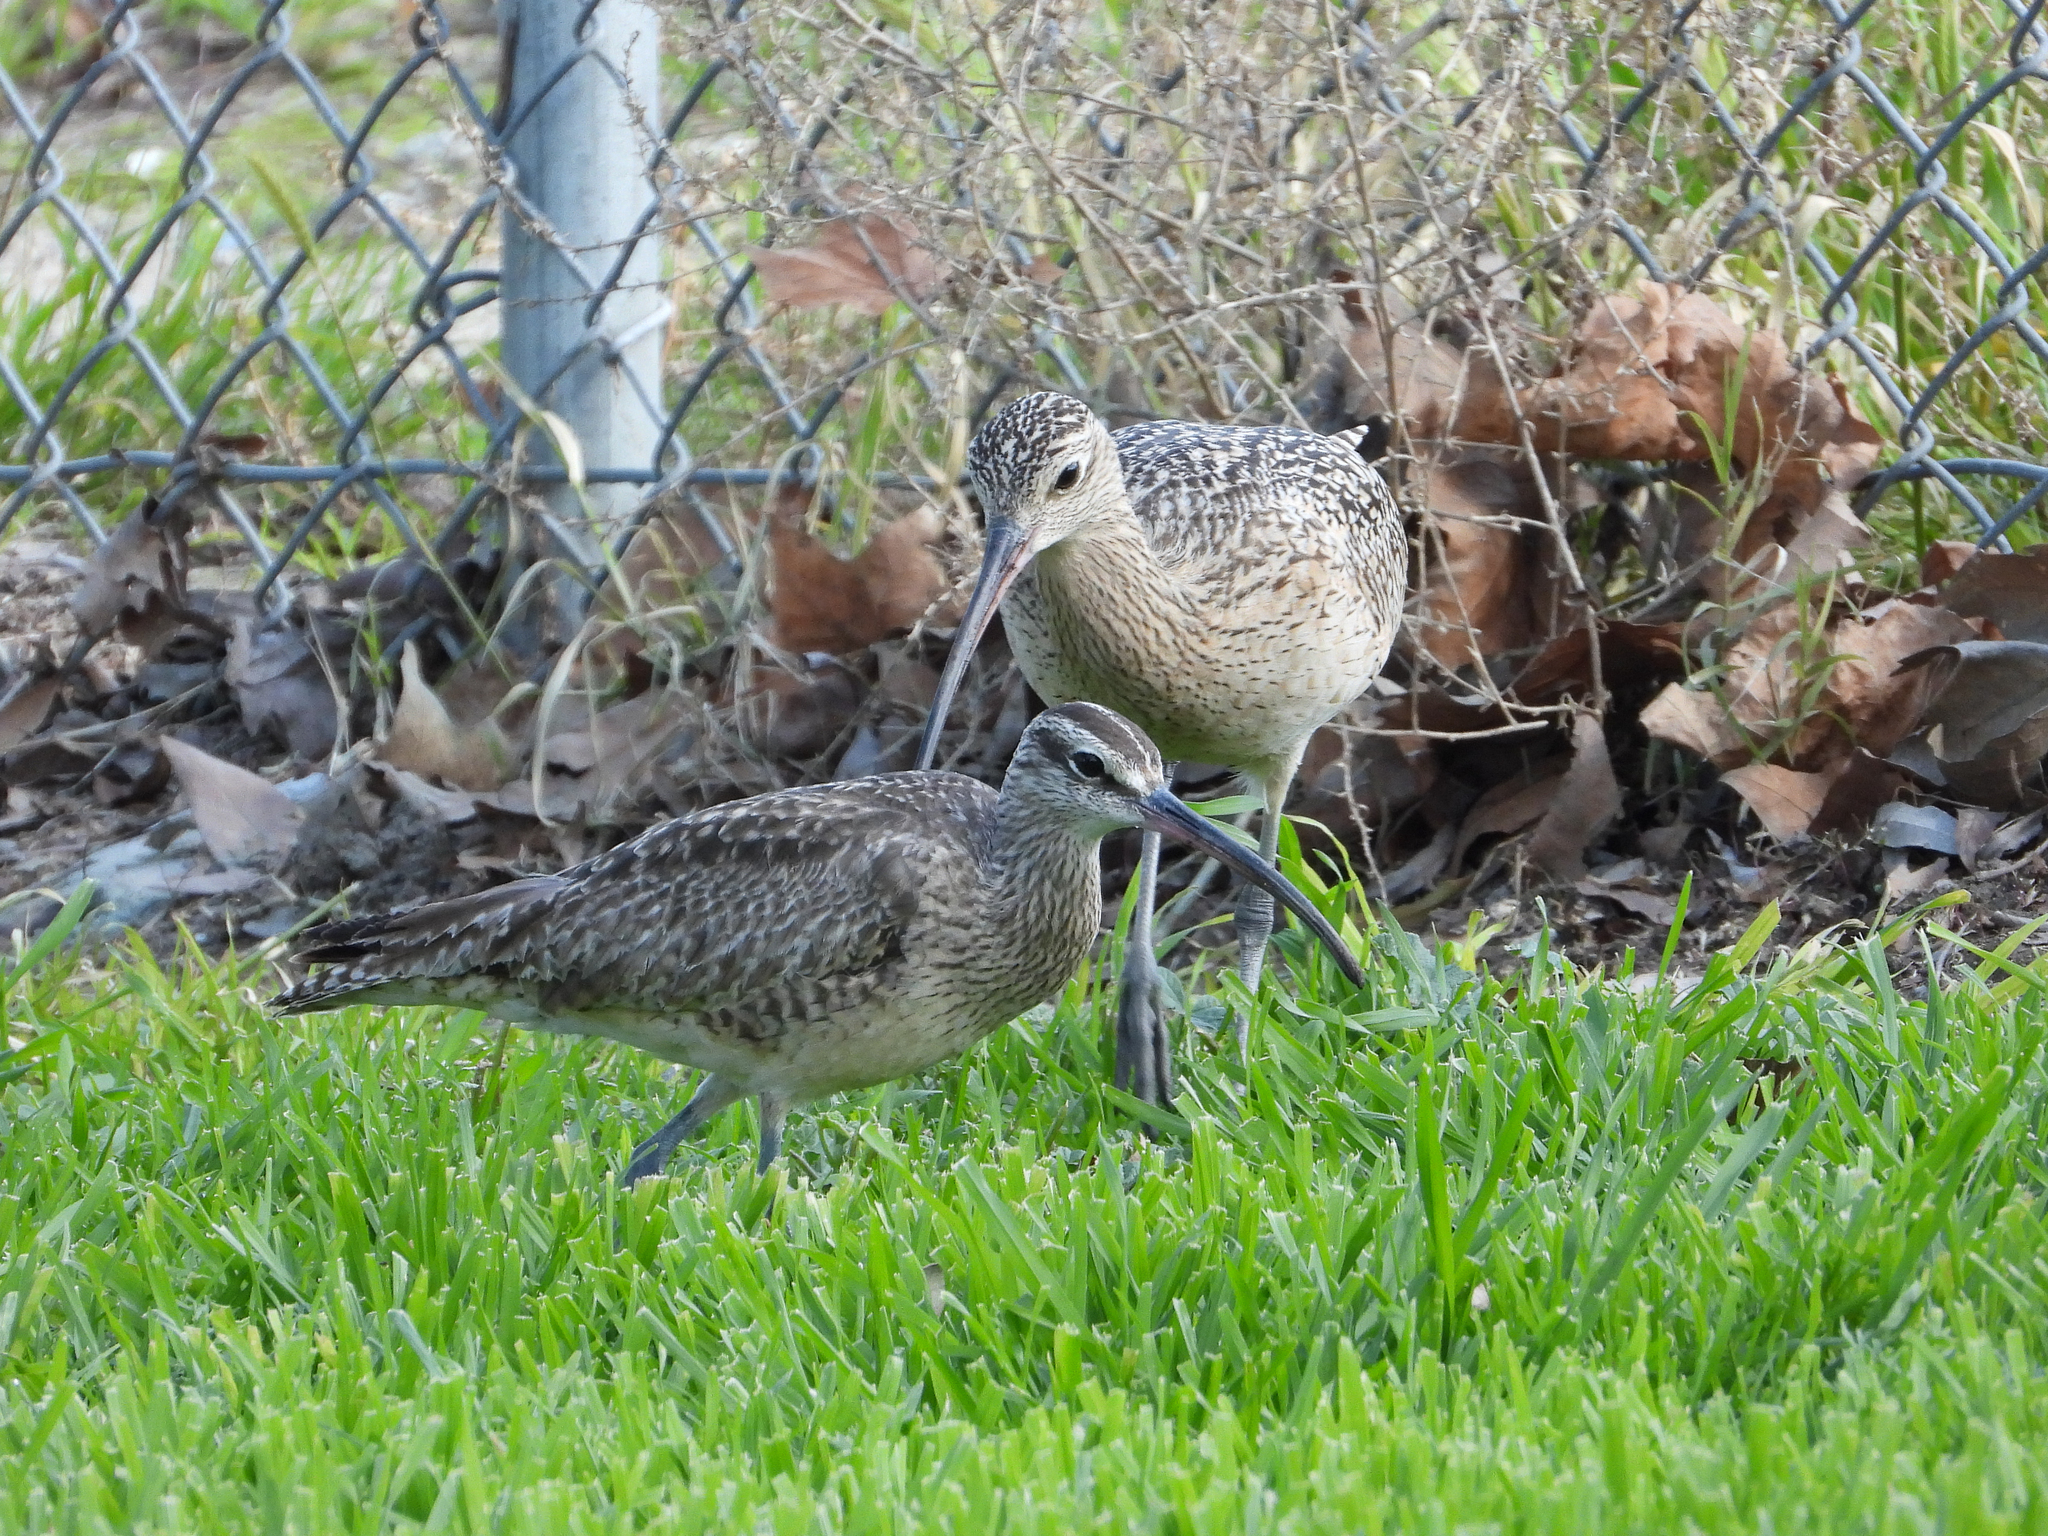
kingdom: Animalia
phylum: Chordata
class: Aves
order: Charadriiformes
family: Scolopacidae
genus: Numenius
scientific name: Numenius phaeopus
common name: Whimbrel
